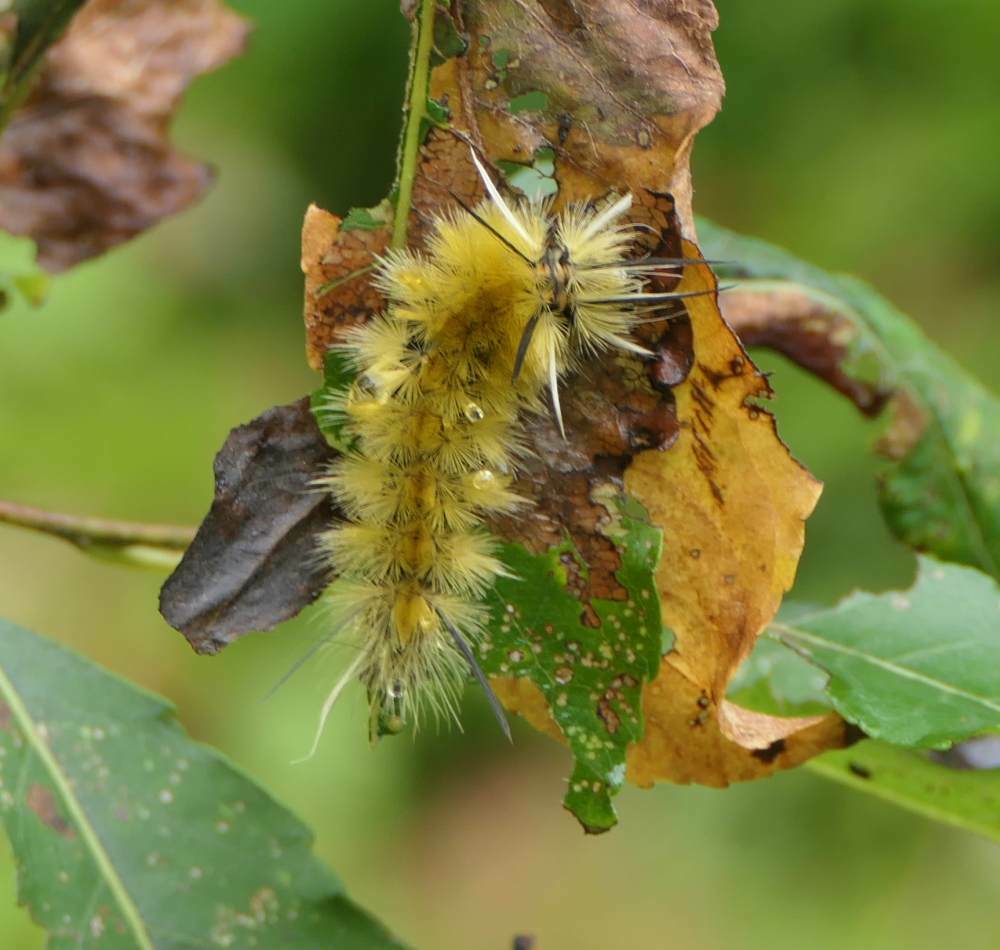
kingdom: Animalia
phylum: Arthropoda
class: Insecta
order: Lepidoptera
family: Erebidae
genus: Halysidota
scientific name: Halysidota tessellaris
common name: Banded tussock moth
